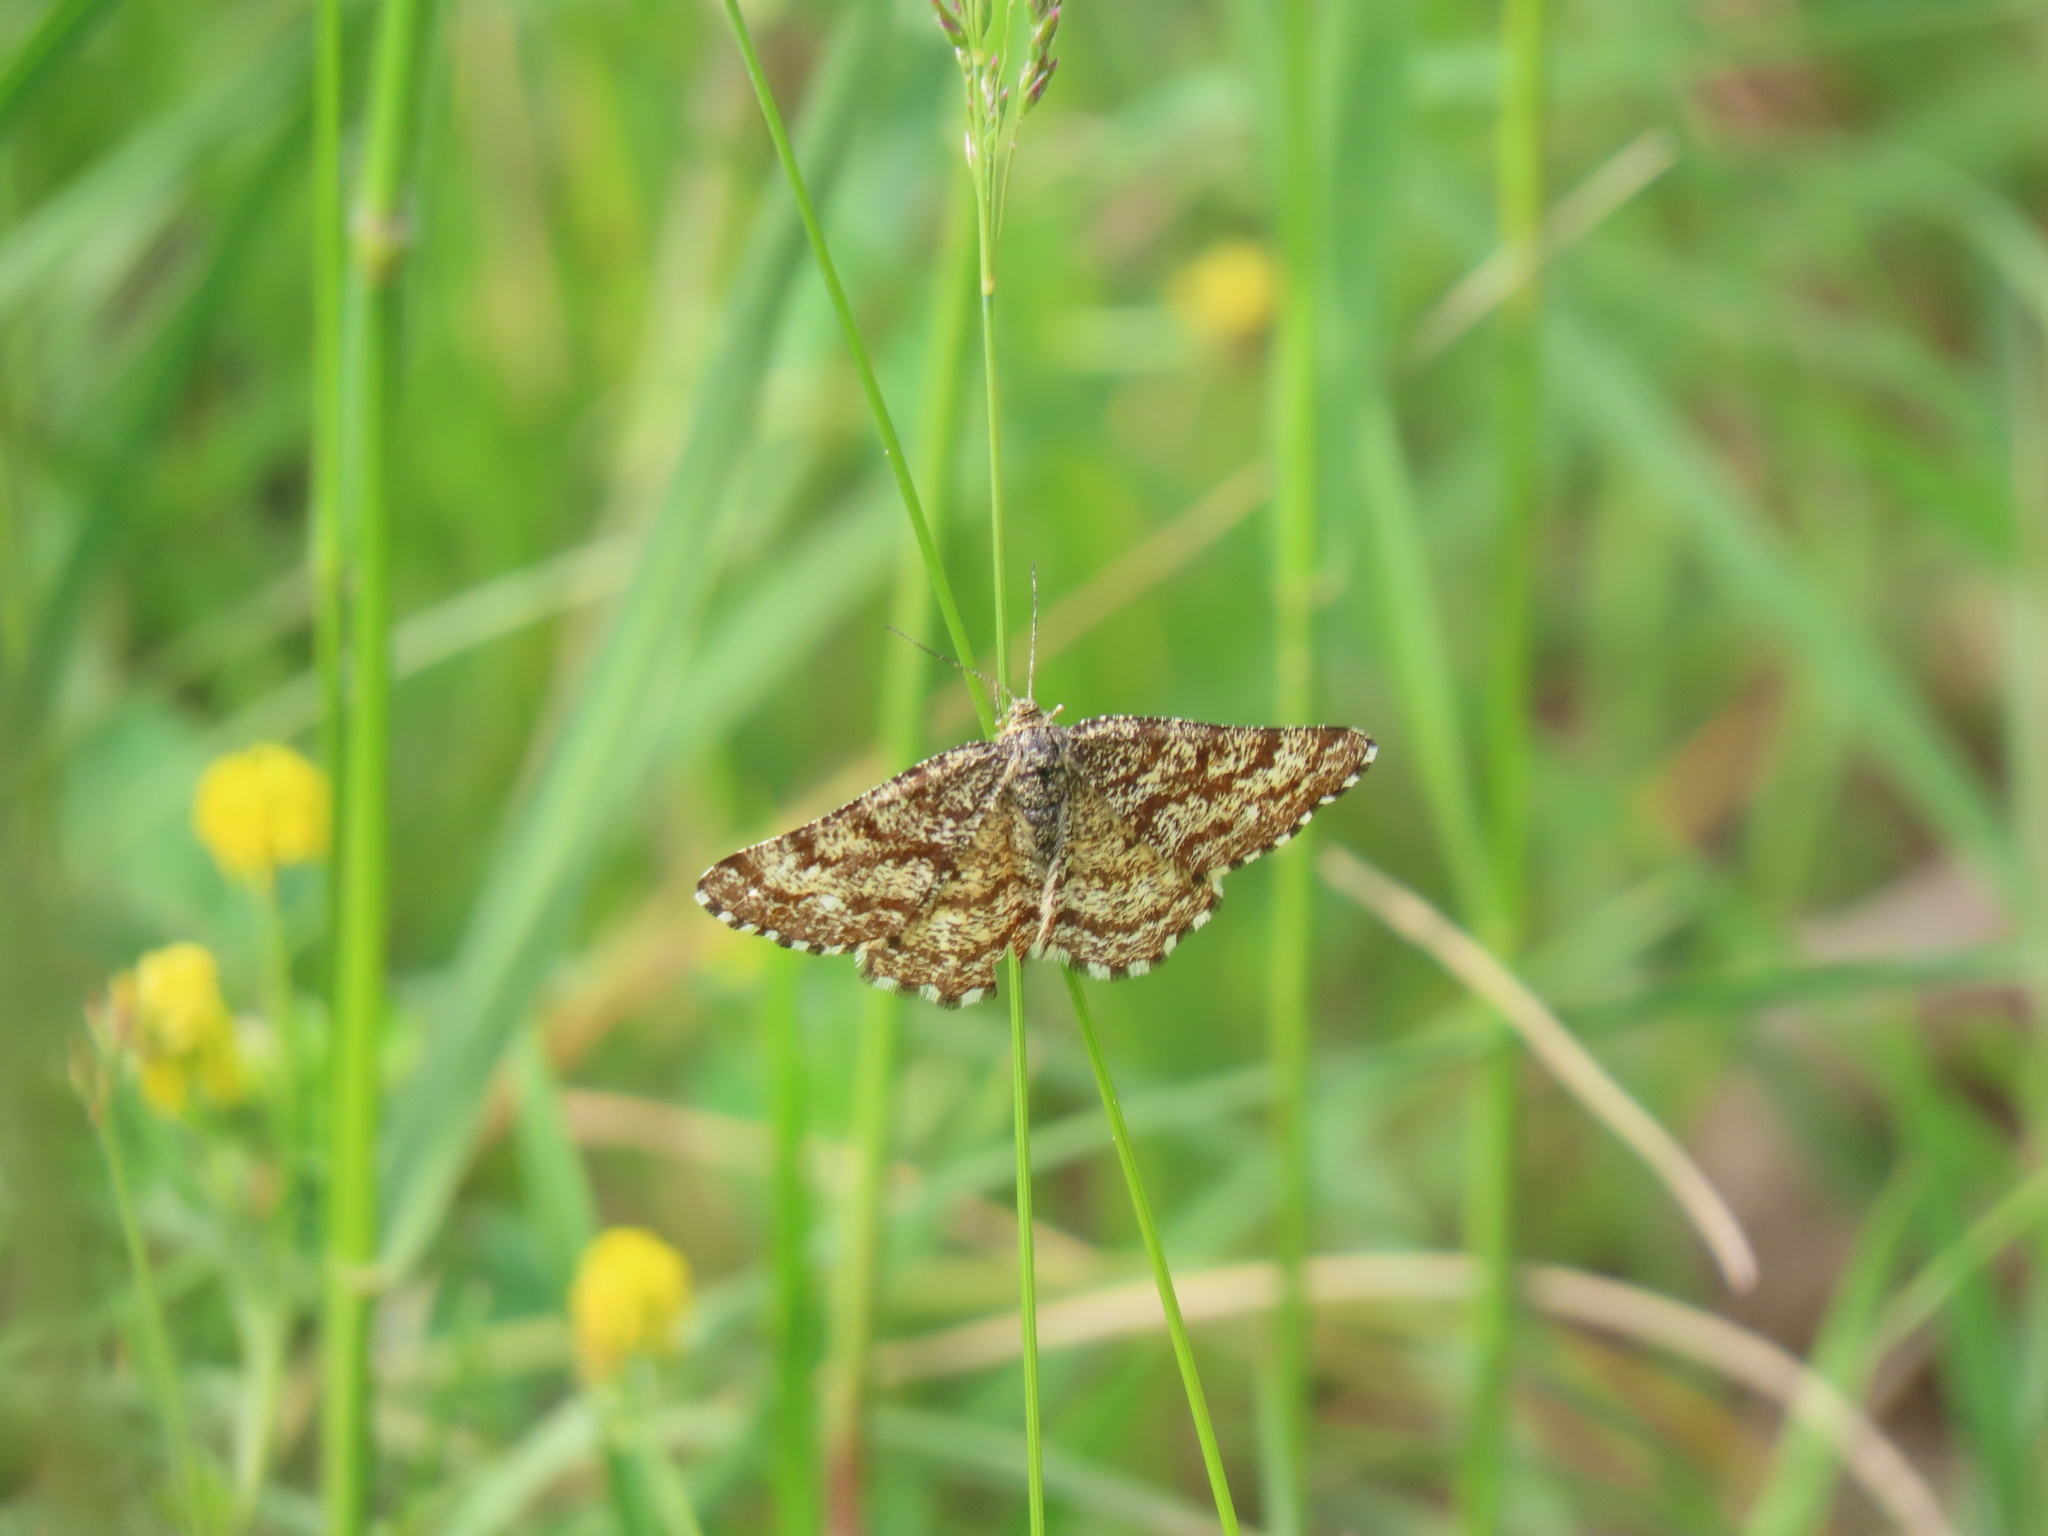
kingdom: Animalia
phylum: Arthropoda
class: Insecta
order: Lepidoptera
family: Geometridae
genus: Ematurga
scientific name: Ematurga atomaria
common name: Common heath
